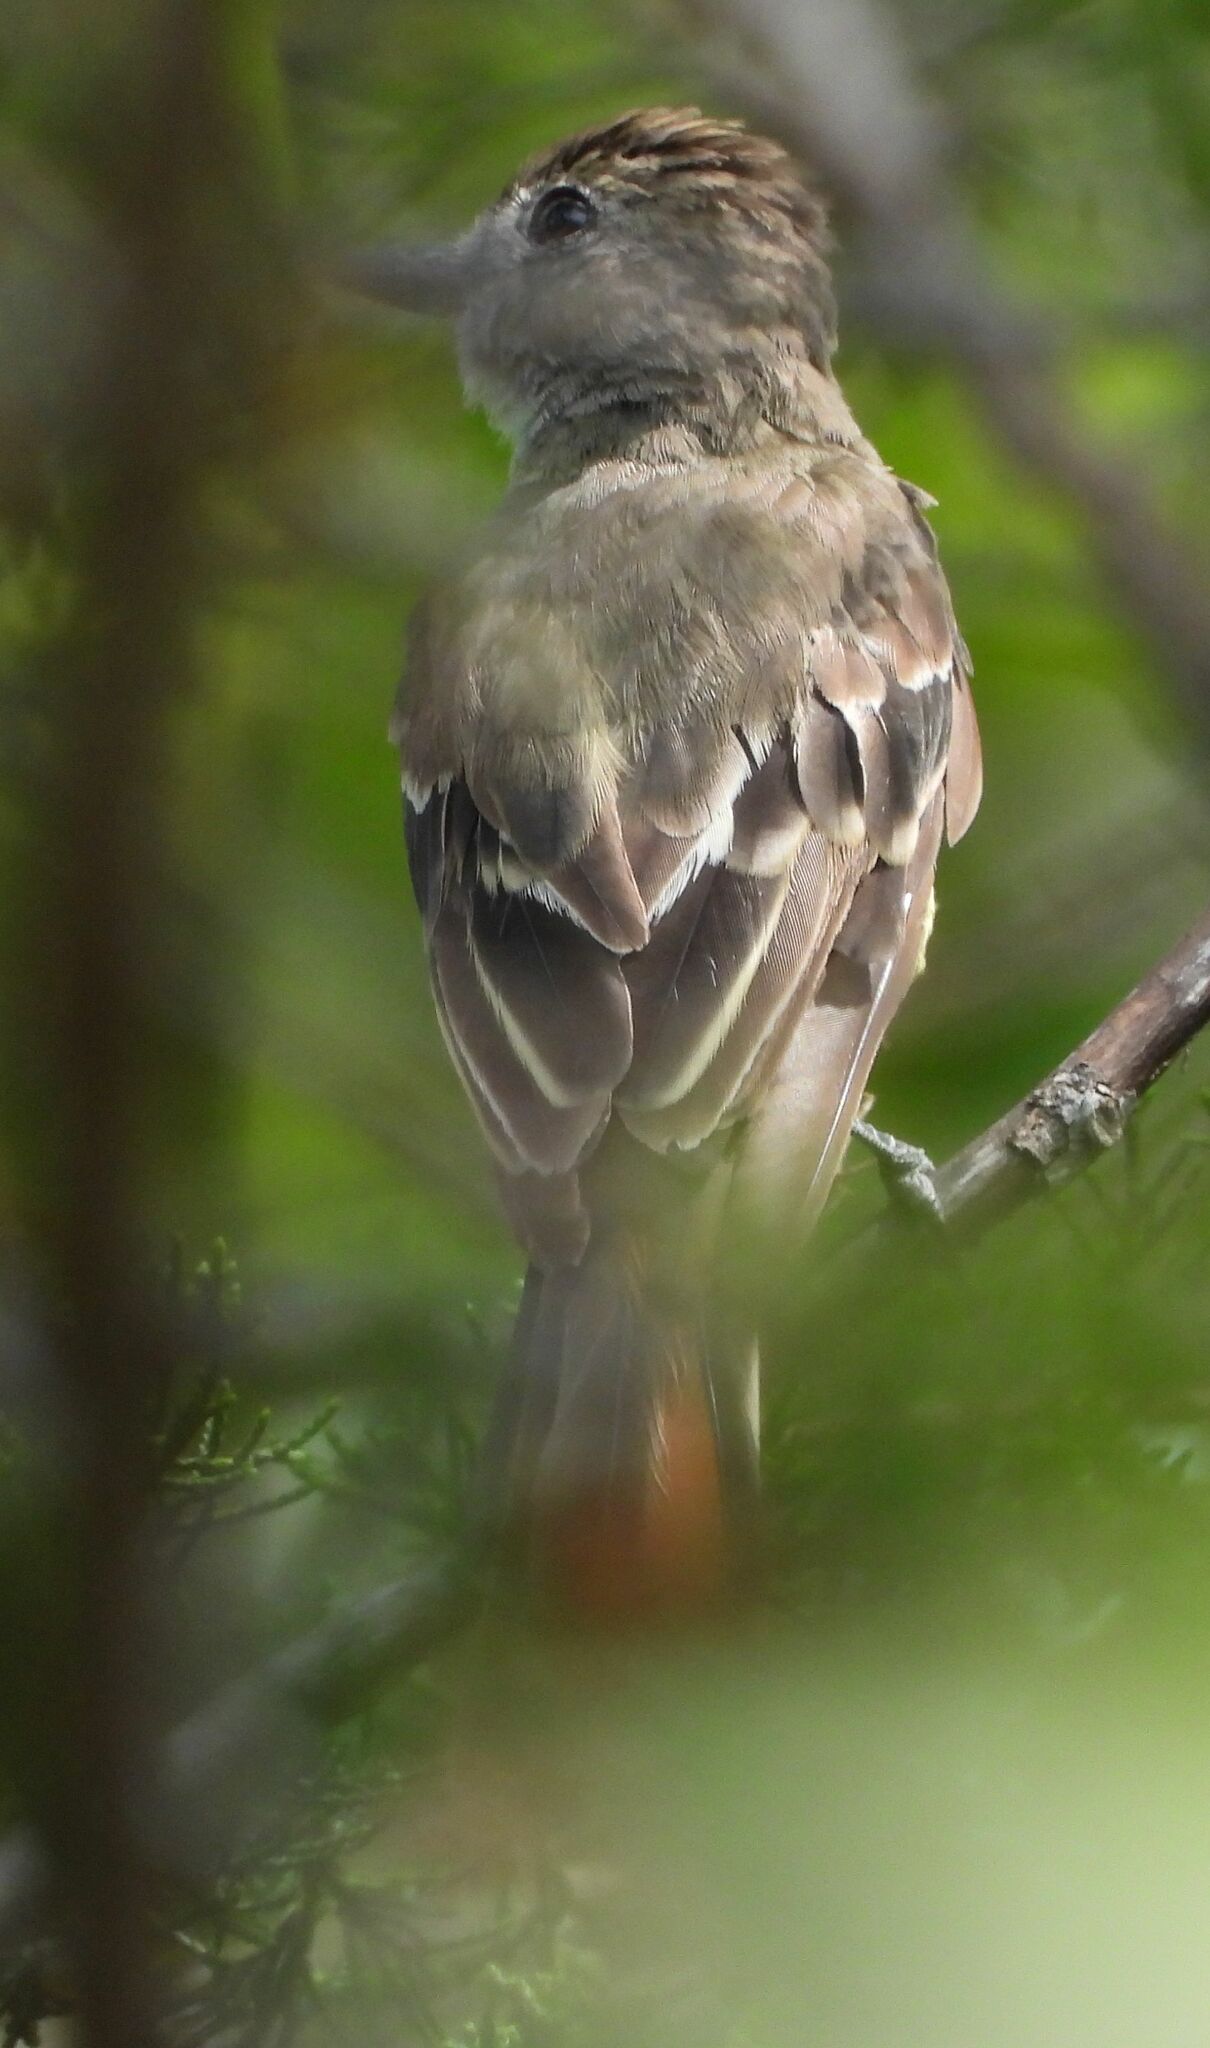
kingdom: Animalia
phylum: Chordata
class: Aves
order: Passeriformes
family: Tyrannidae
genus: Myiarchus
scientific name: Myiarchus crinitus
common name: Great crested flycatcher
